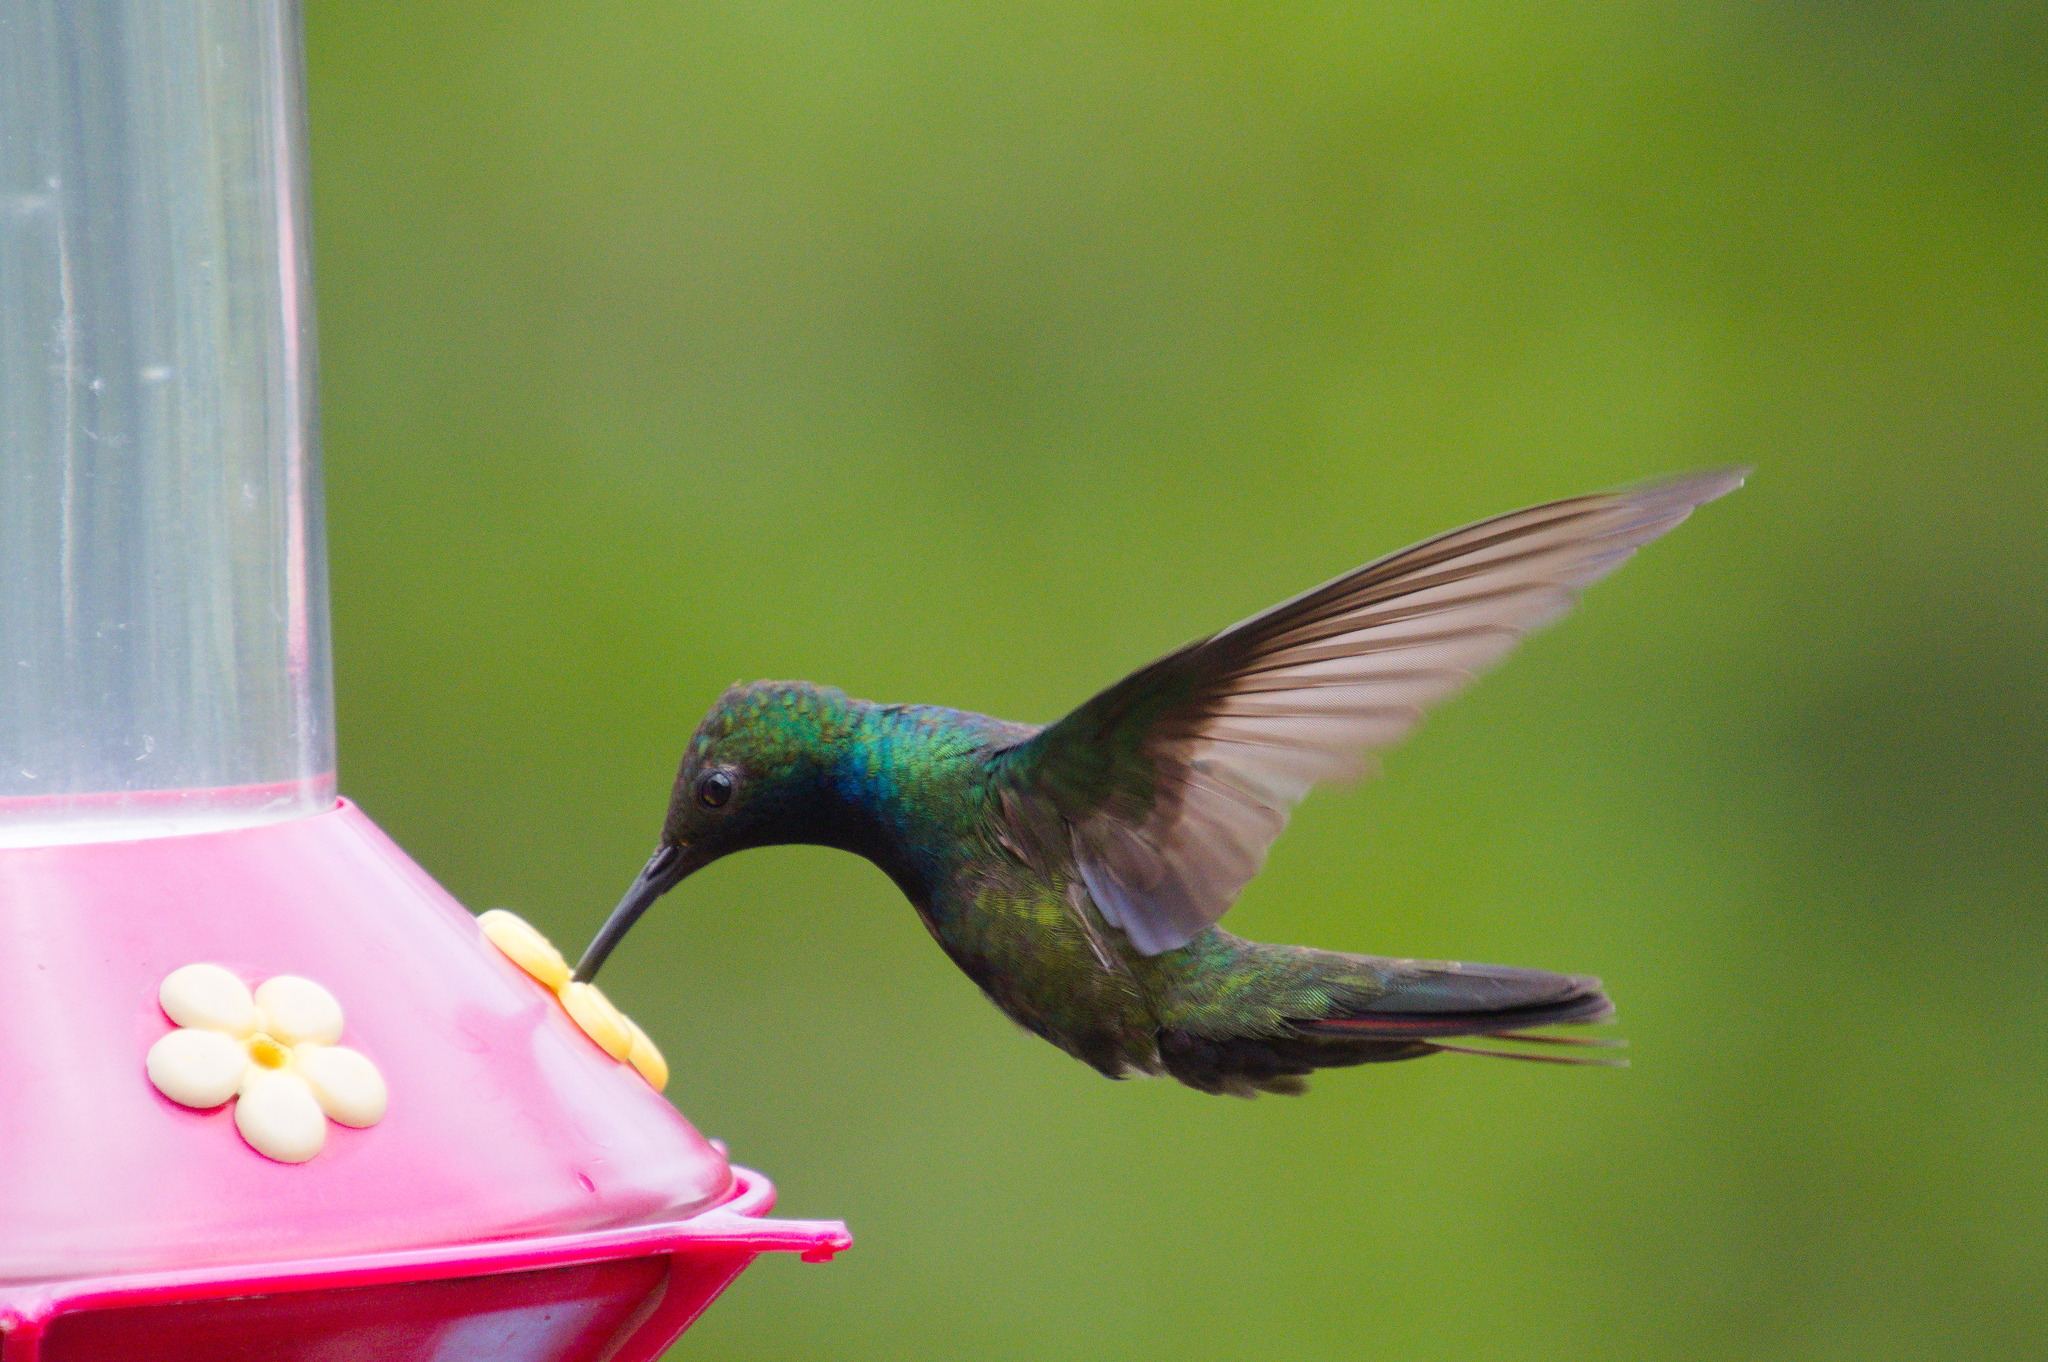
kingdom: Animalia
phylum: Chordata
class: Aves
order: Apodiformes
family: Trochilidae
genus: Anthracothorax
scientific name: Anthracothorax nigricollis
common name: Black-throated mango
